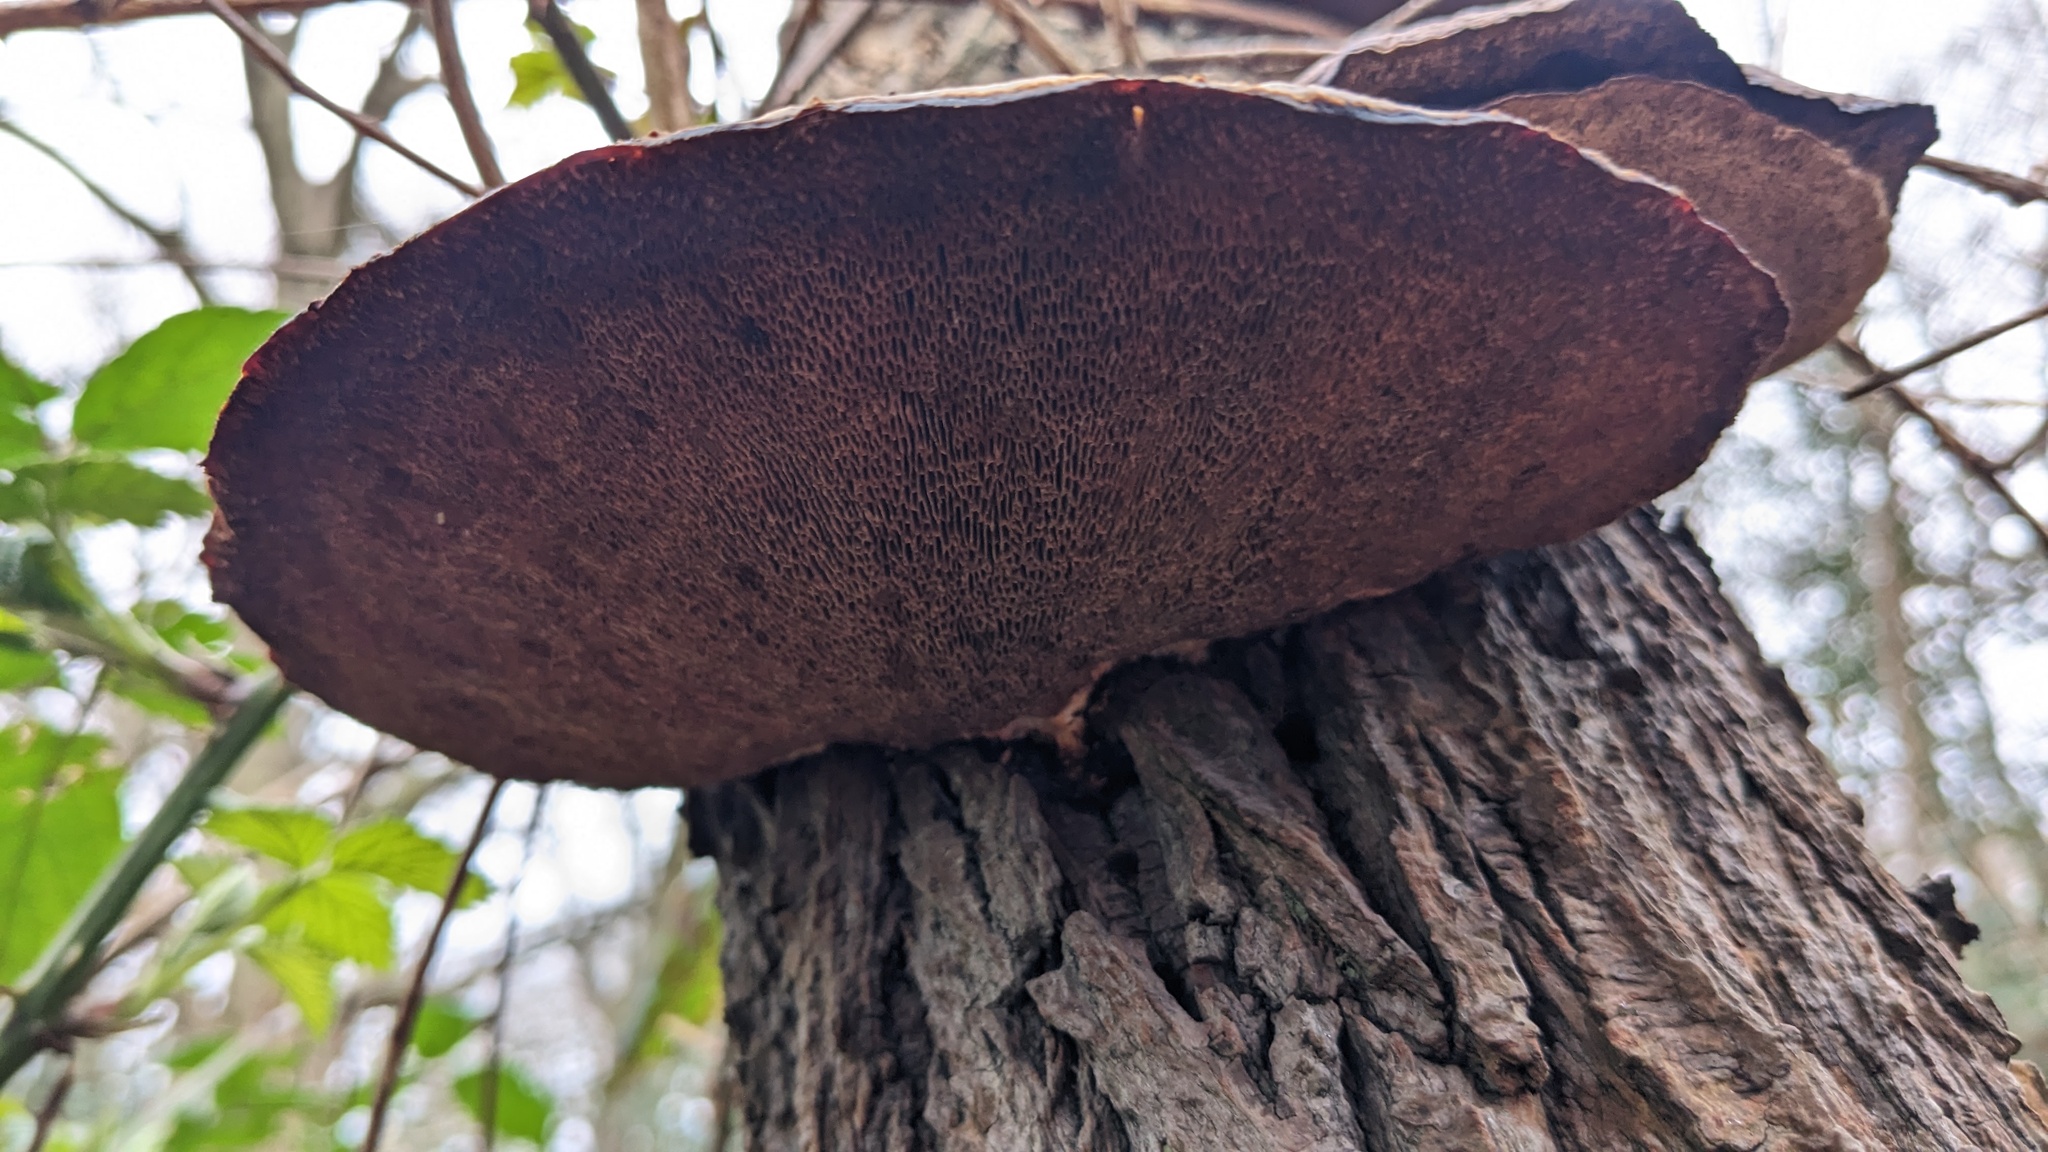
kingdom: Fungi
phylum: Basidiomycota
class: Agaricomycetes
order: Polyporales
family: Polyporaceae
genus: Daedaleopsis
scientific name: Daedaleopsis confragosa
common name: Blushing bracket
